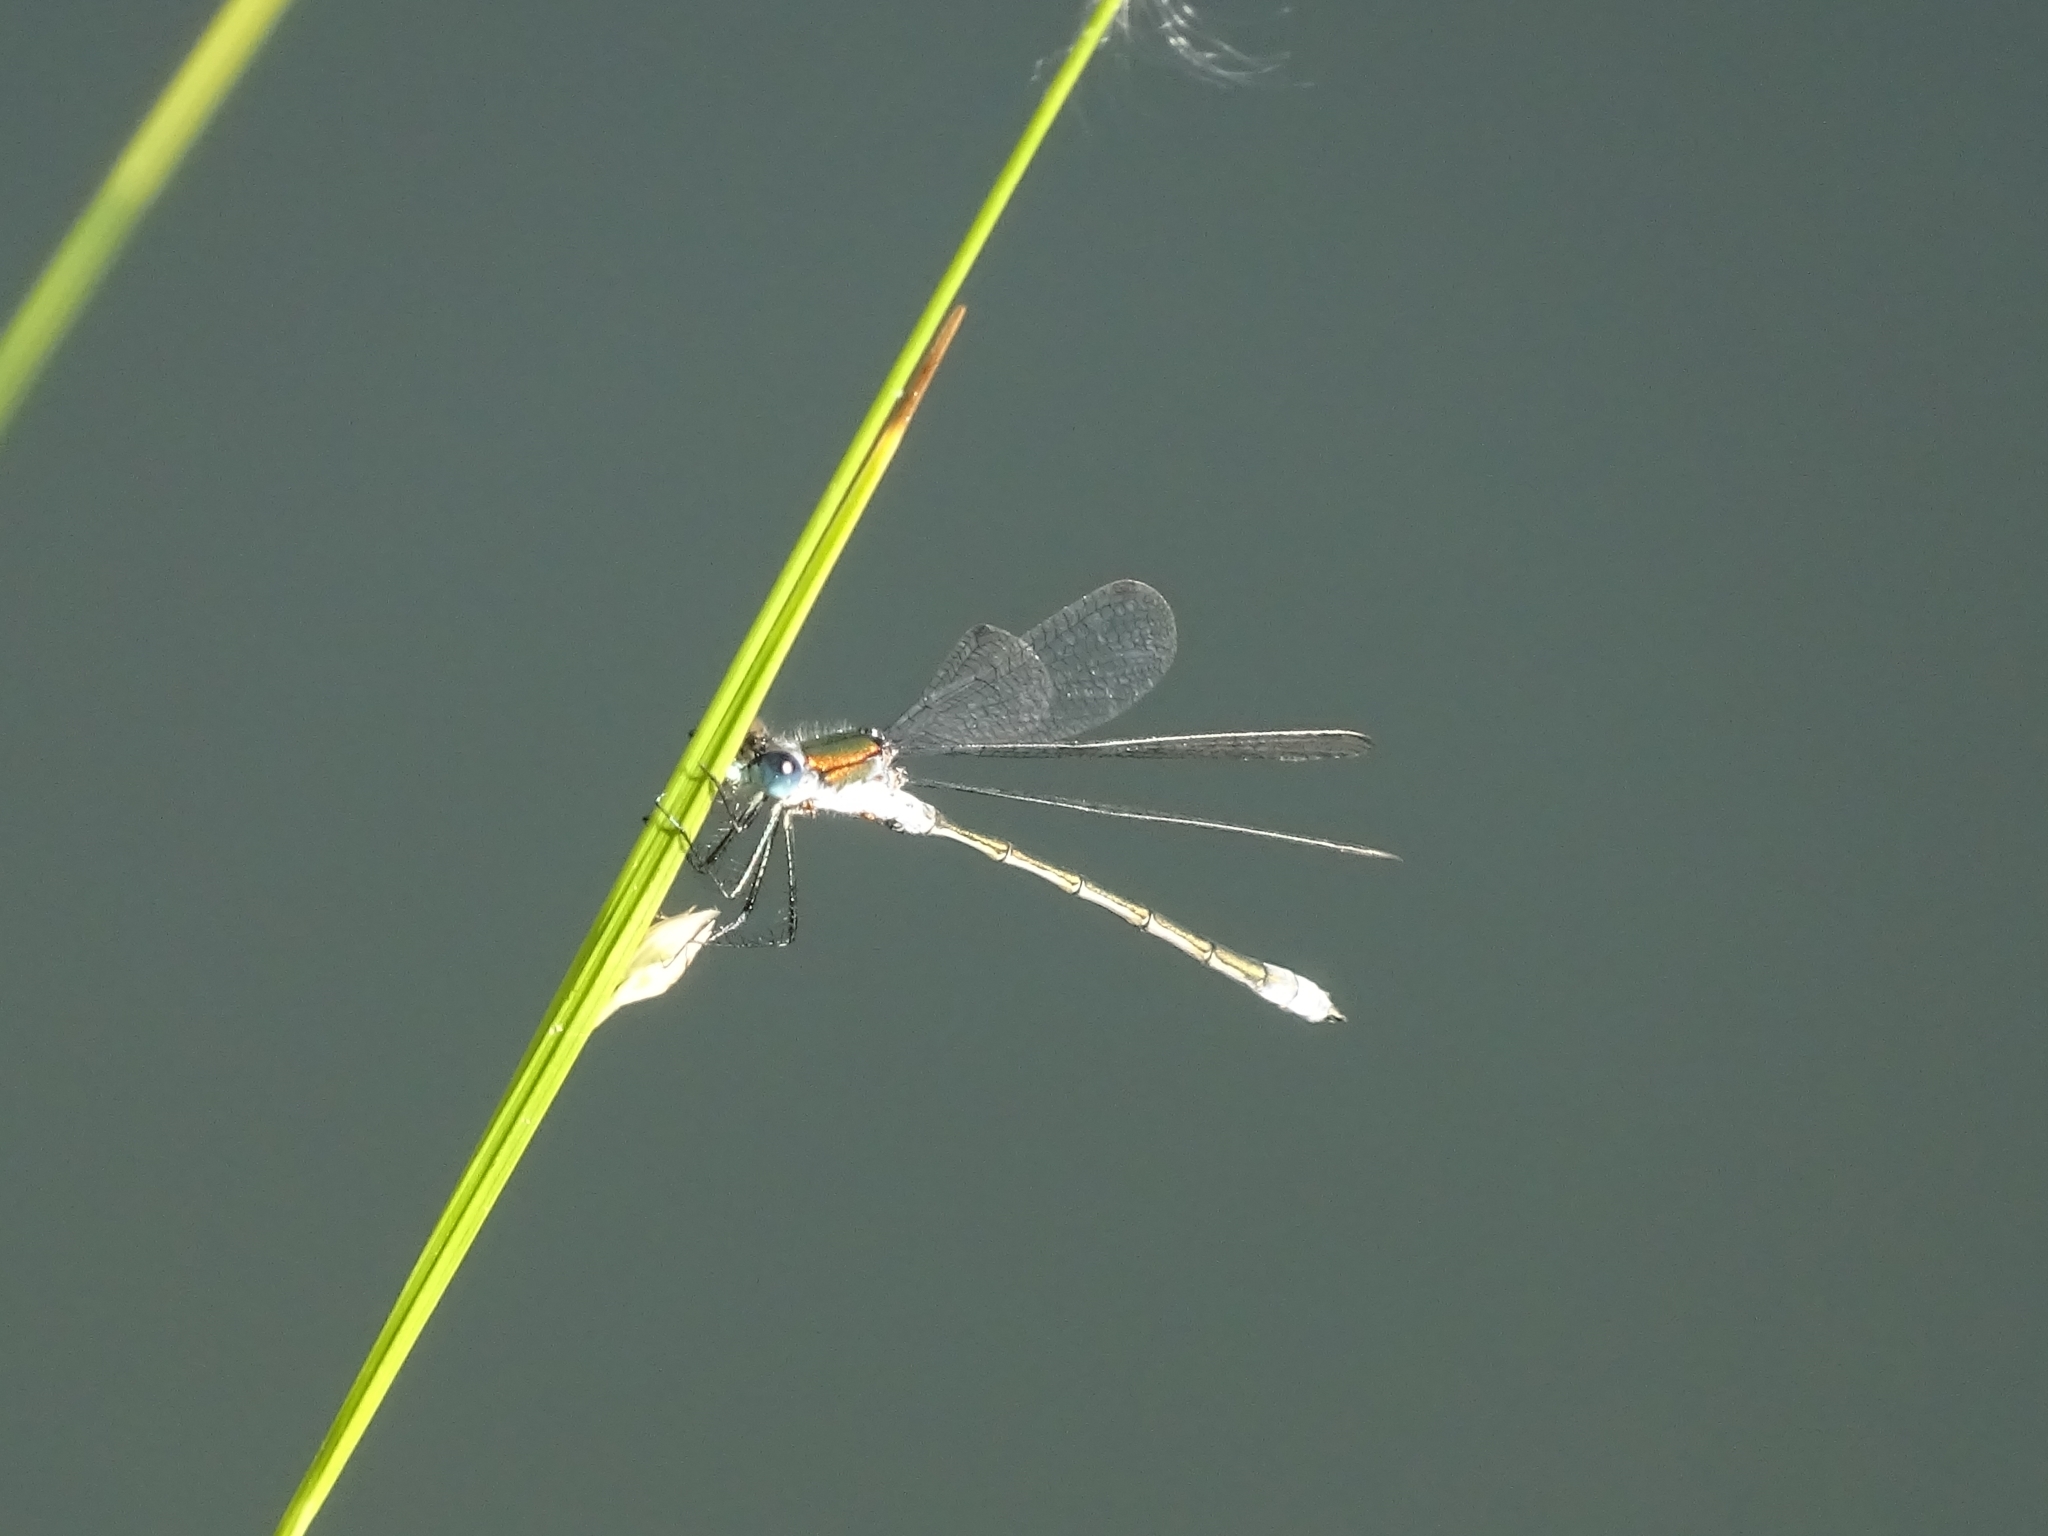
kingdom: Animalia
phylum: Arthropoda
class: Insecta
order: Odonata
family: Lestidae
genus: Lestes
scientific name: Lestes sponsa
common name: Common spreadwing
